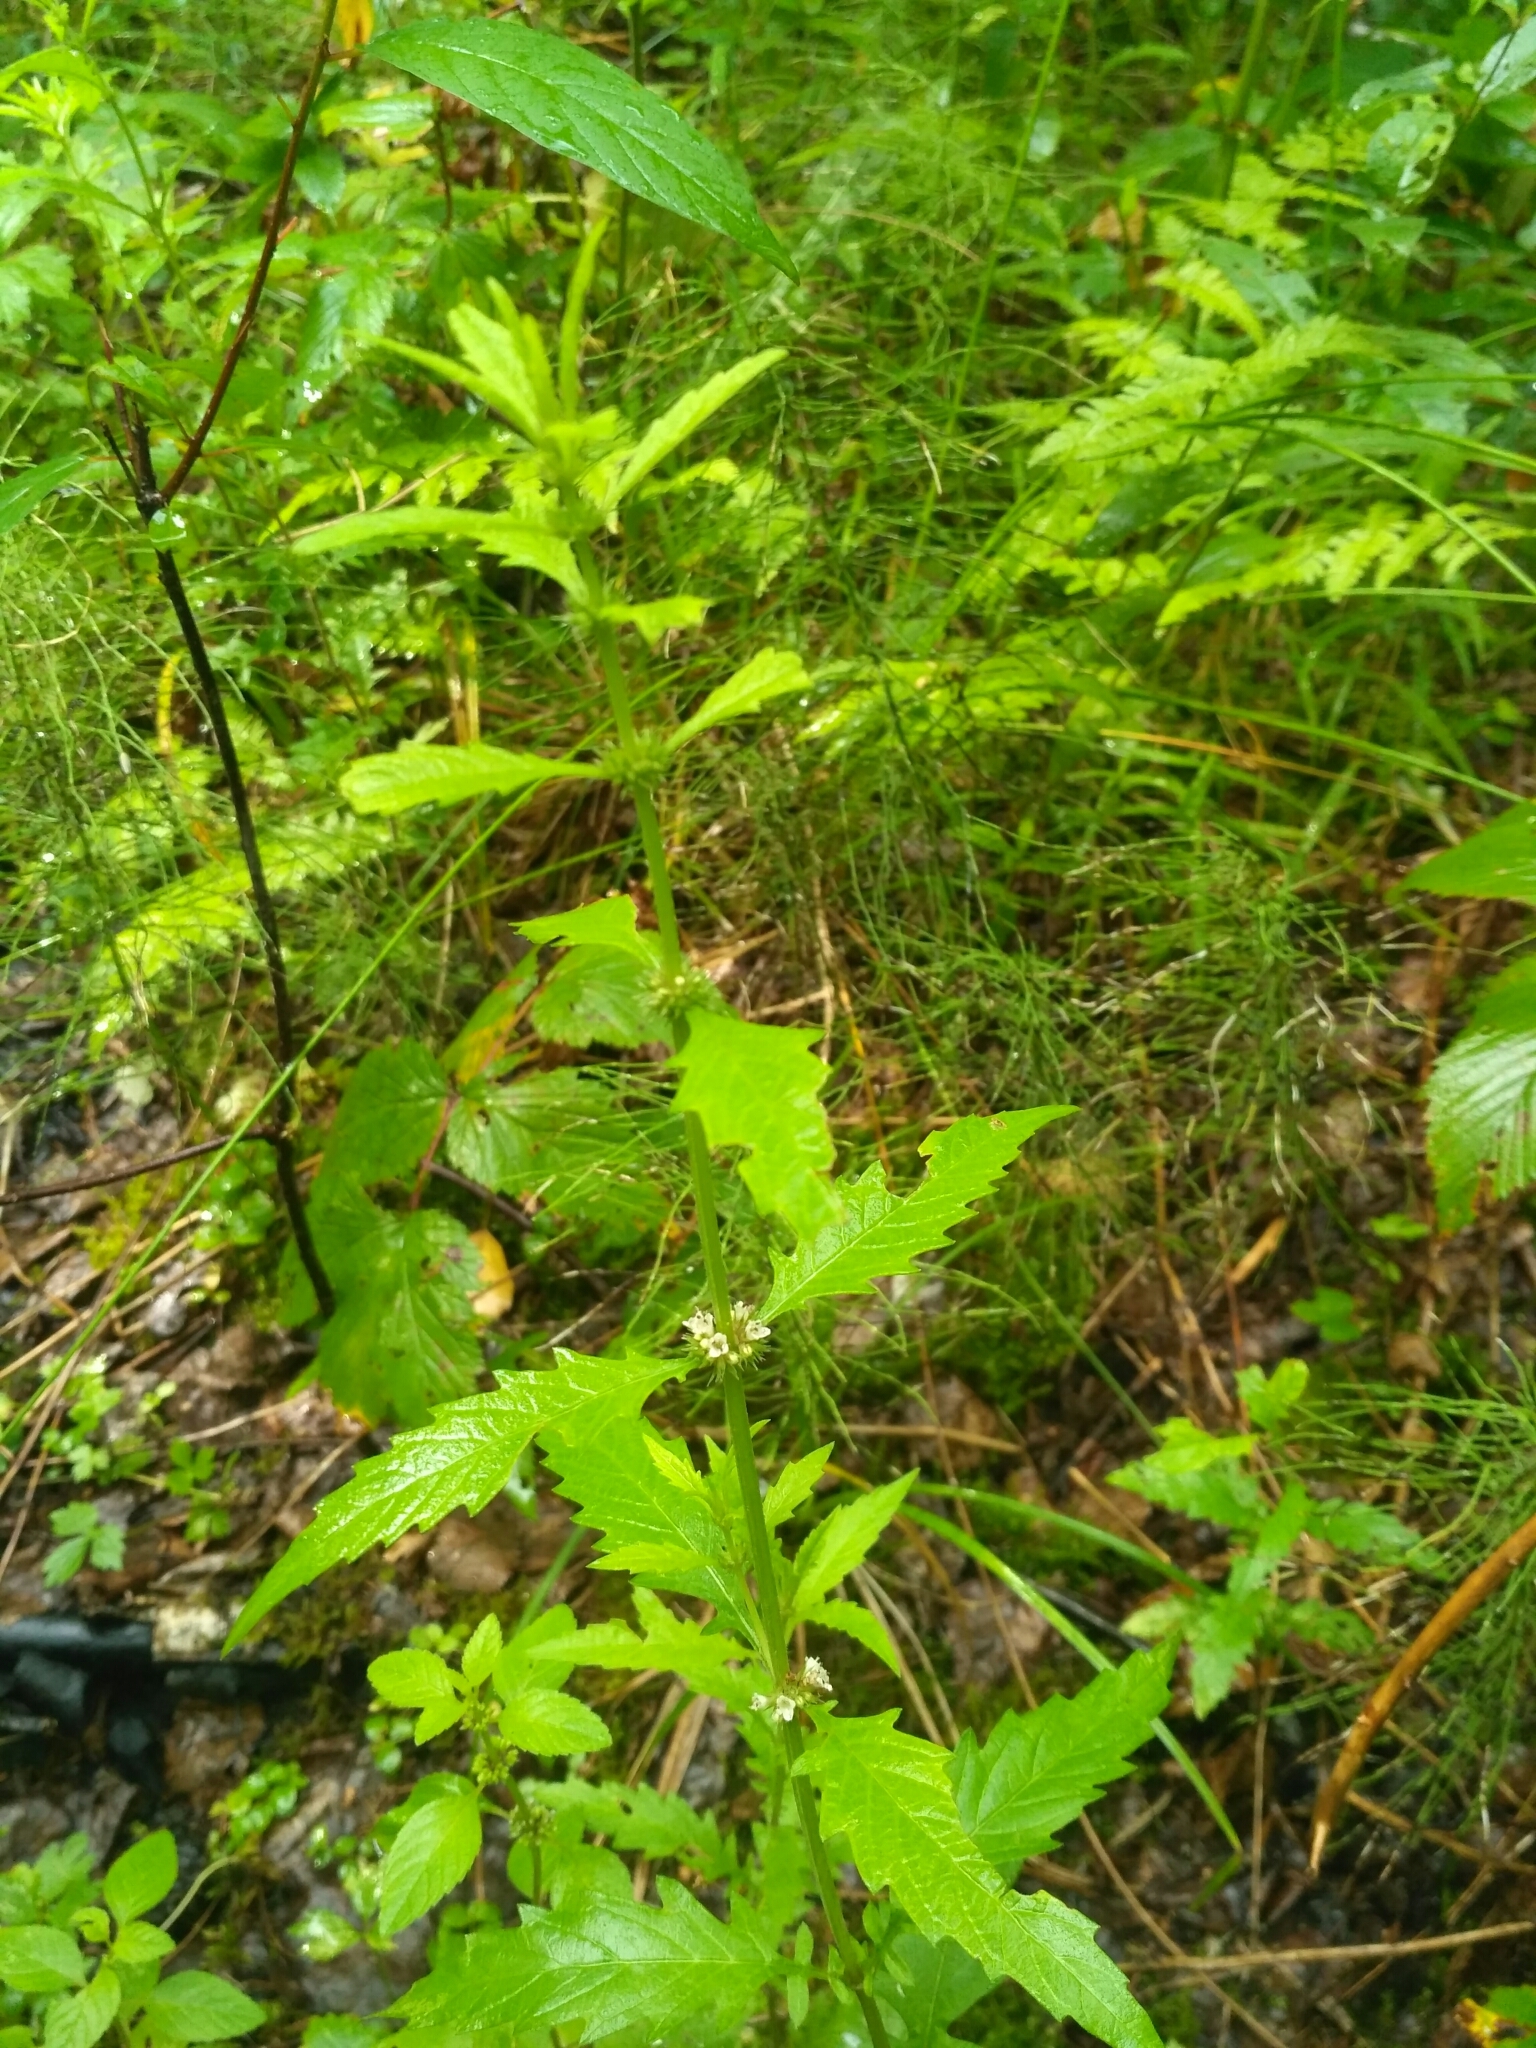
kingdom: Plantae
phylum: Tracheophyta
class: Magnoliopsida
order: Lamiales
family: Lamiaceae
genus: Lycopus
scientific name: Lycopus europaeus
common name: European bugleweed
